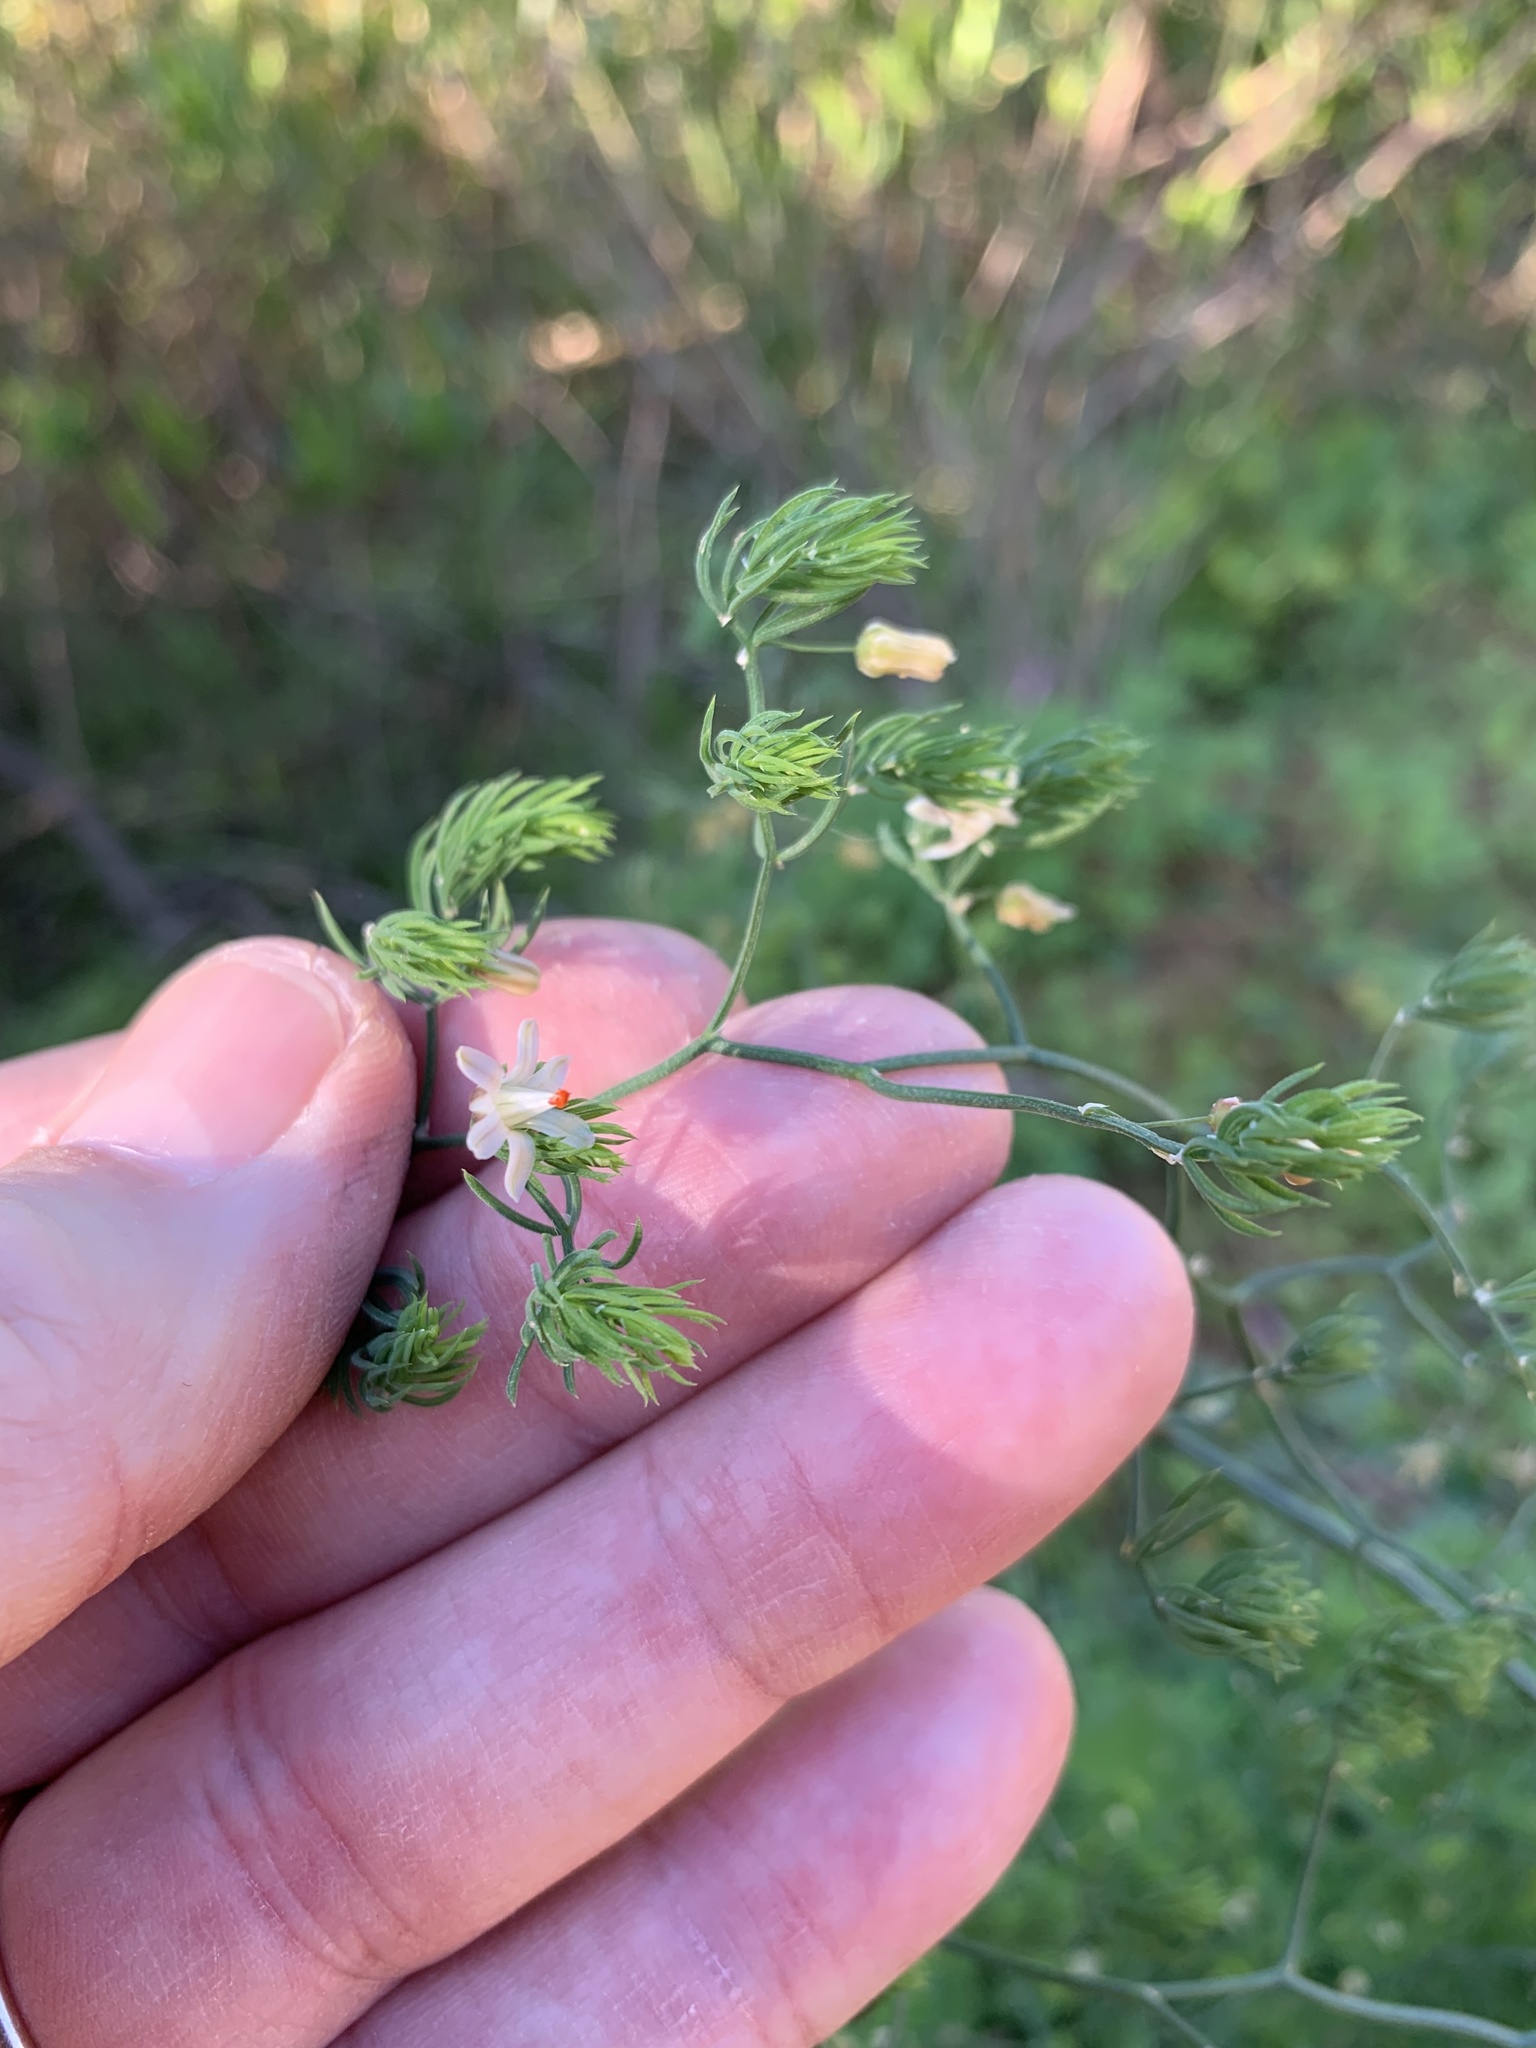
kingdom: Plantae
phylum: Tracheophyta
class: Liliopsida
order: Asparagales
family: Asparagaceae
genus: Asparagus
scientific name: Asparagus declinatus
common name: Bridal-creeper
